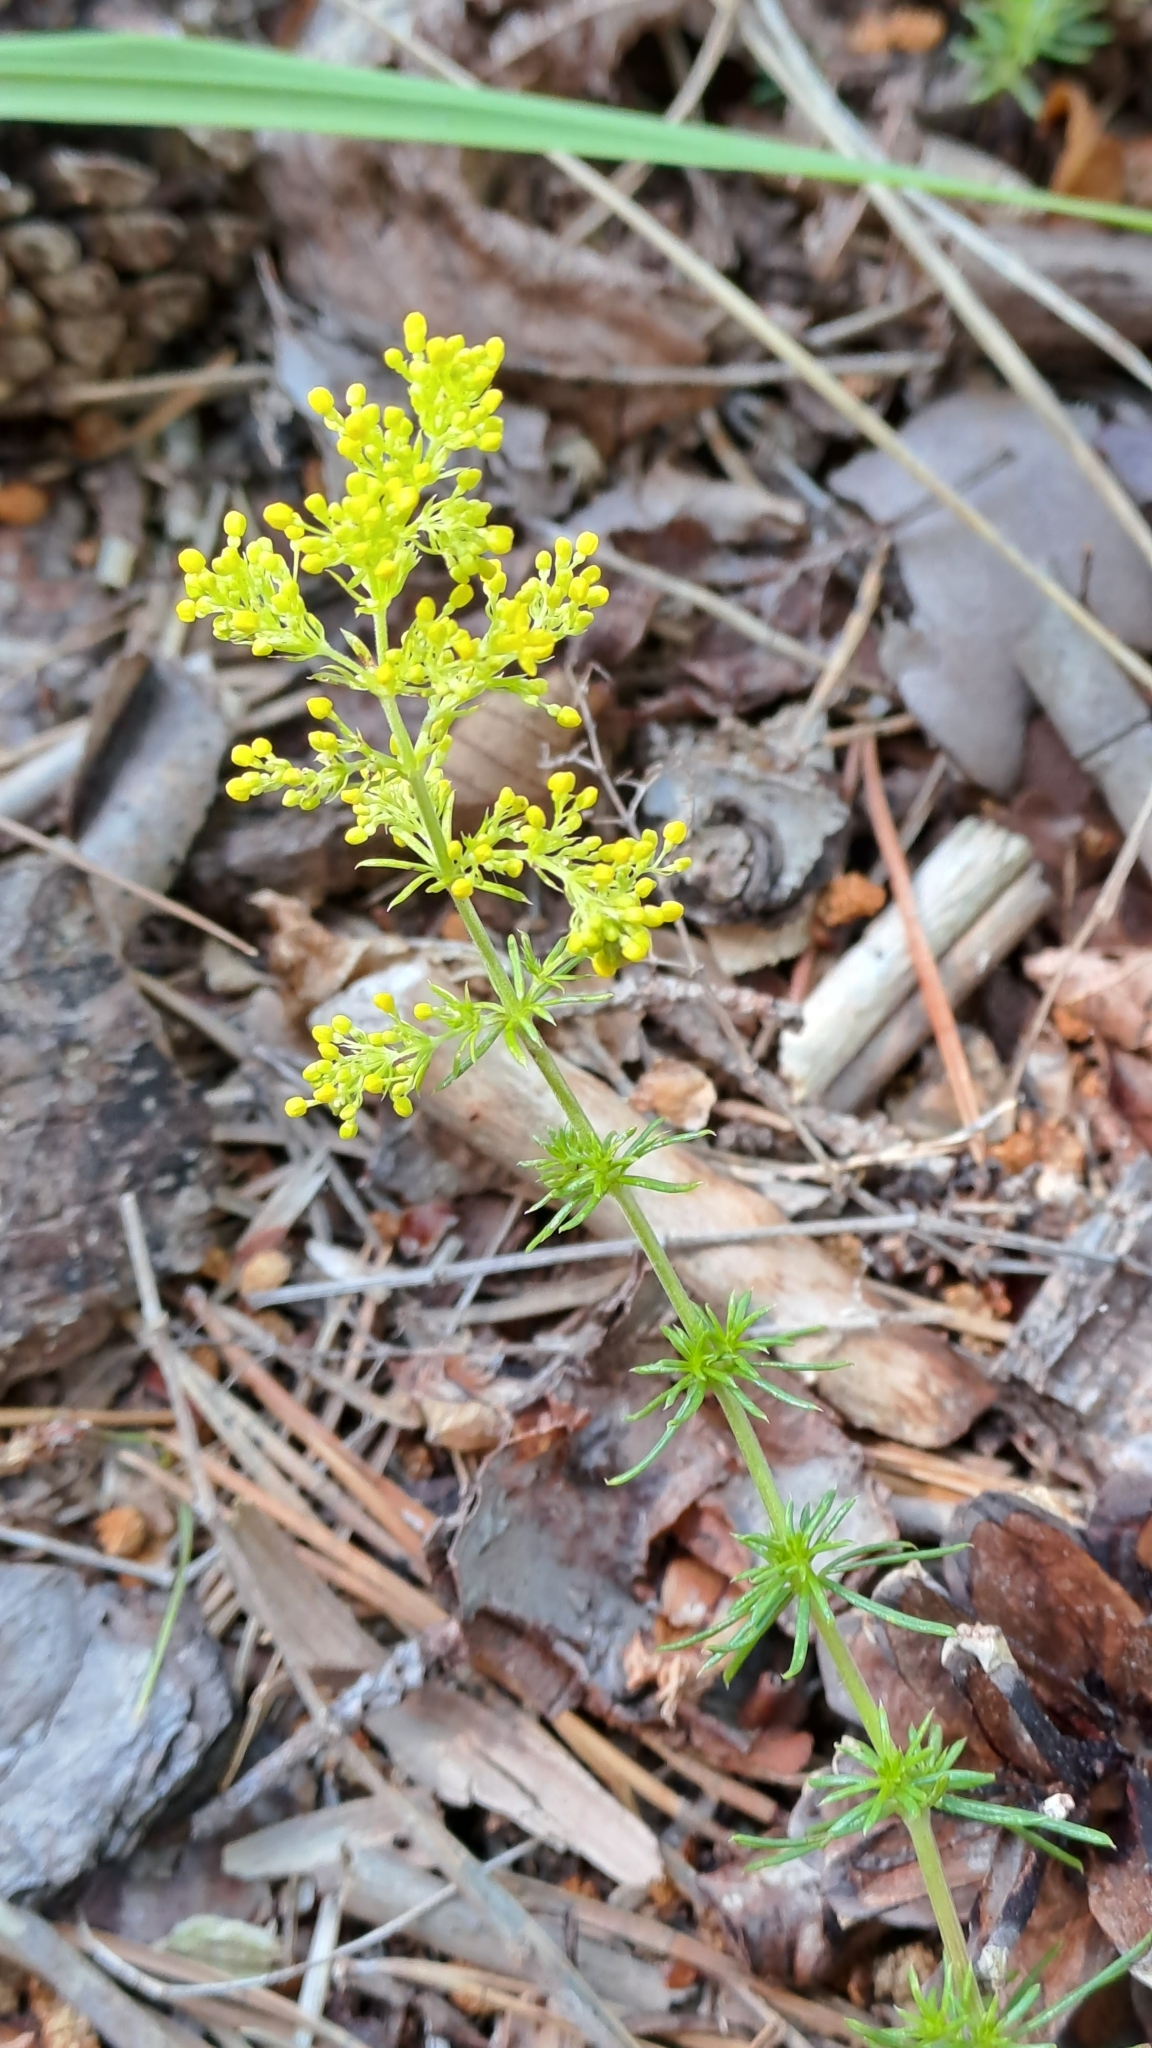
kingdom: Plantae
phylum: Tracheophyta
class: Magnoliopsida
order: Gentianales
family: Rubiaceae
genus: Galium
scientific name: Galium verum
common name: Lady's bedstraw
